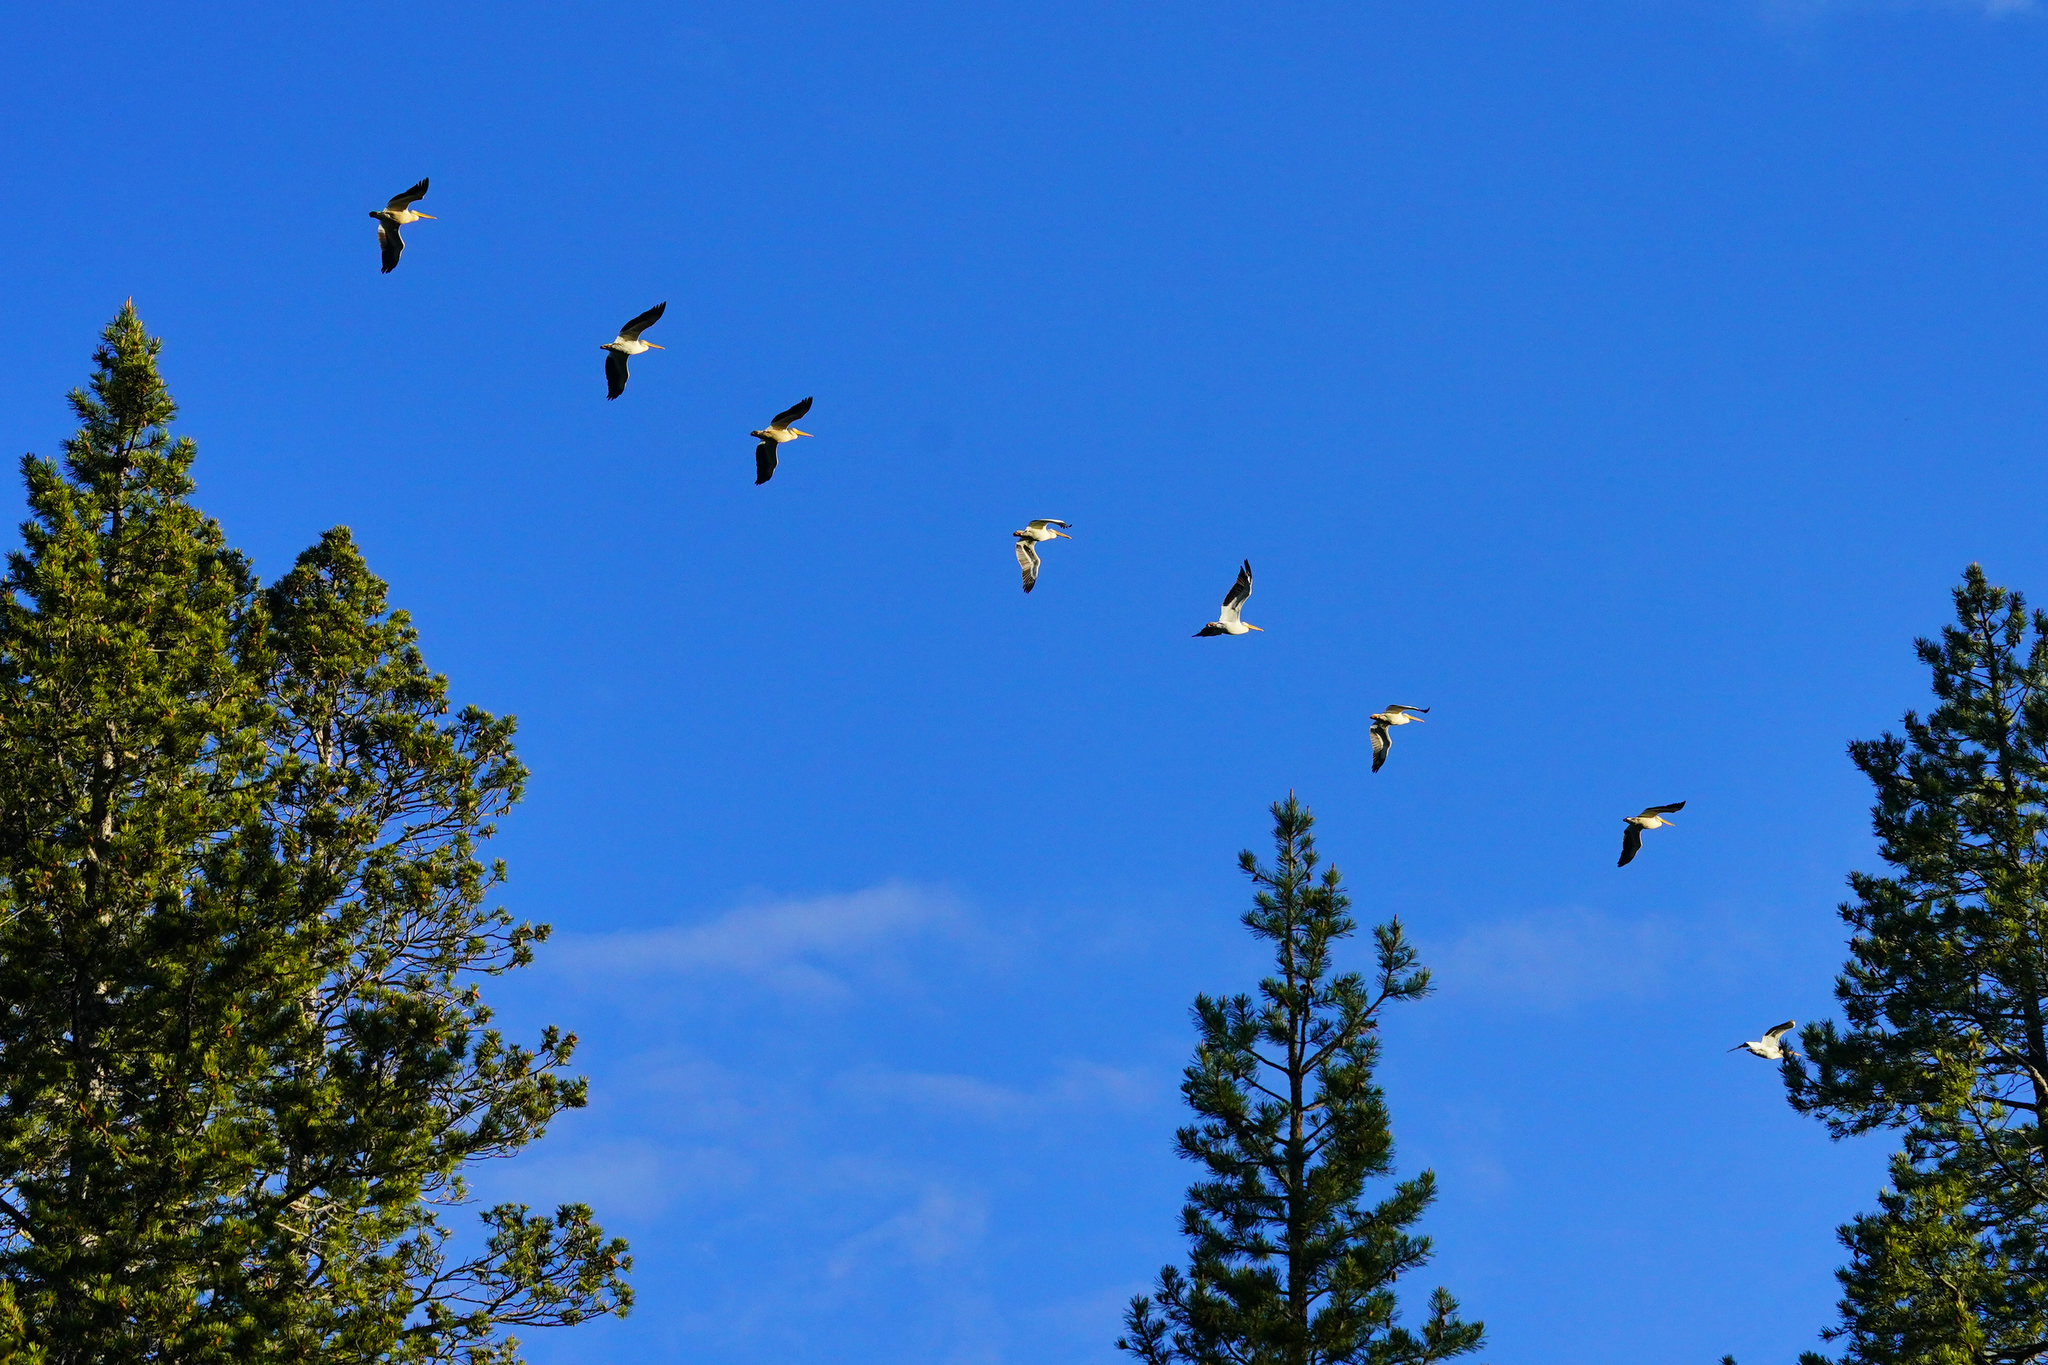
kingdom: Animalia
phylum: Chordata
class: Aves
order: Pelecaniformes
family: Pelecanidae
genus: Pelecanus
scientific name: Pelecanus erythrorhynchos
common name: American white pelican
